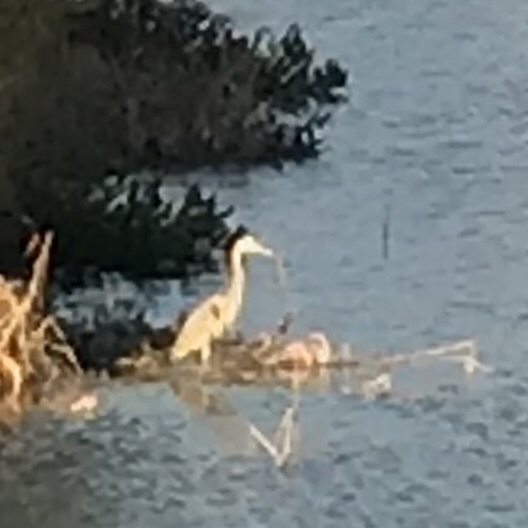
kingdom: Animalia
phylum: Chordata
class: Aves
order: Pelecaniformes
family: Ardeidae
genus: Ardea
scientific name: Ardea herodias
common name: Great blue heron
